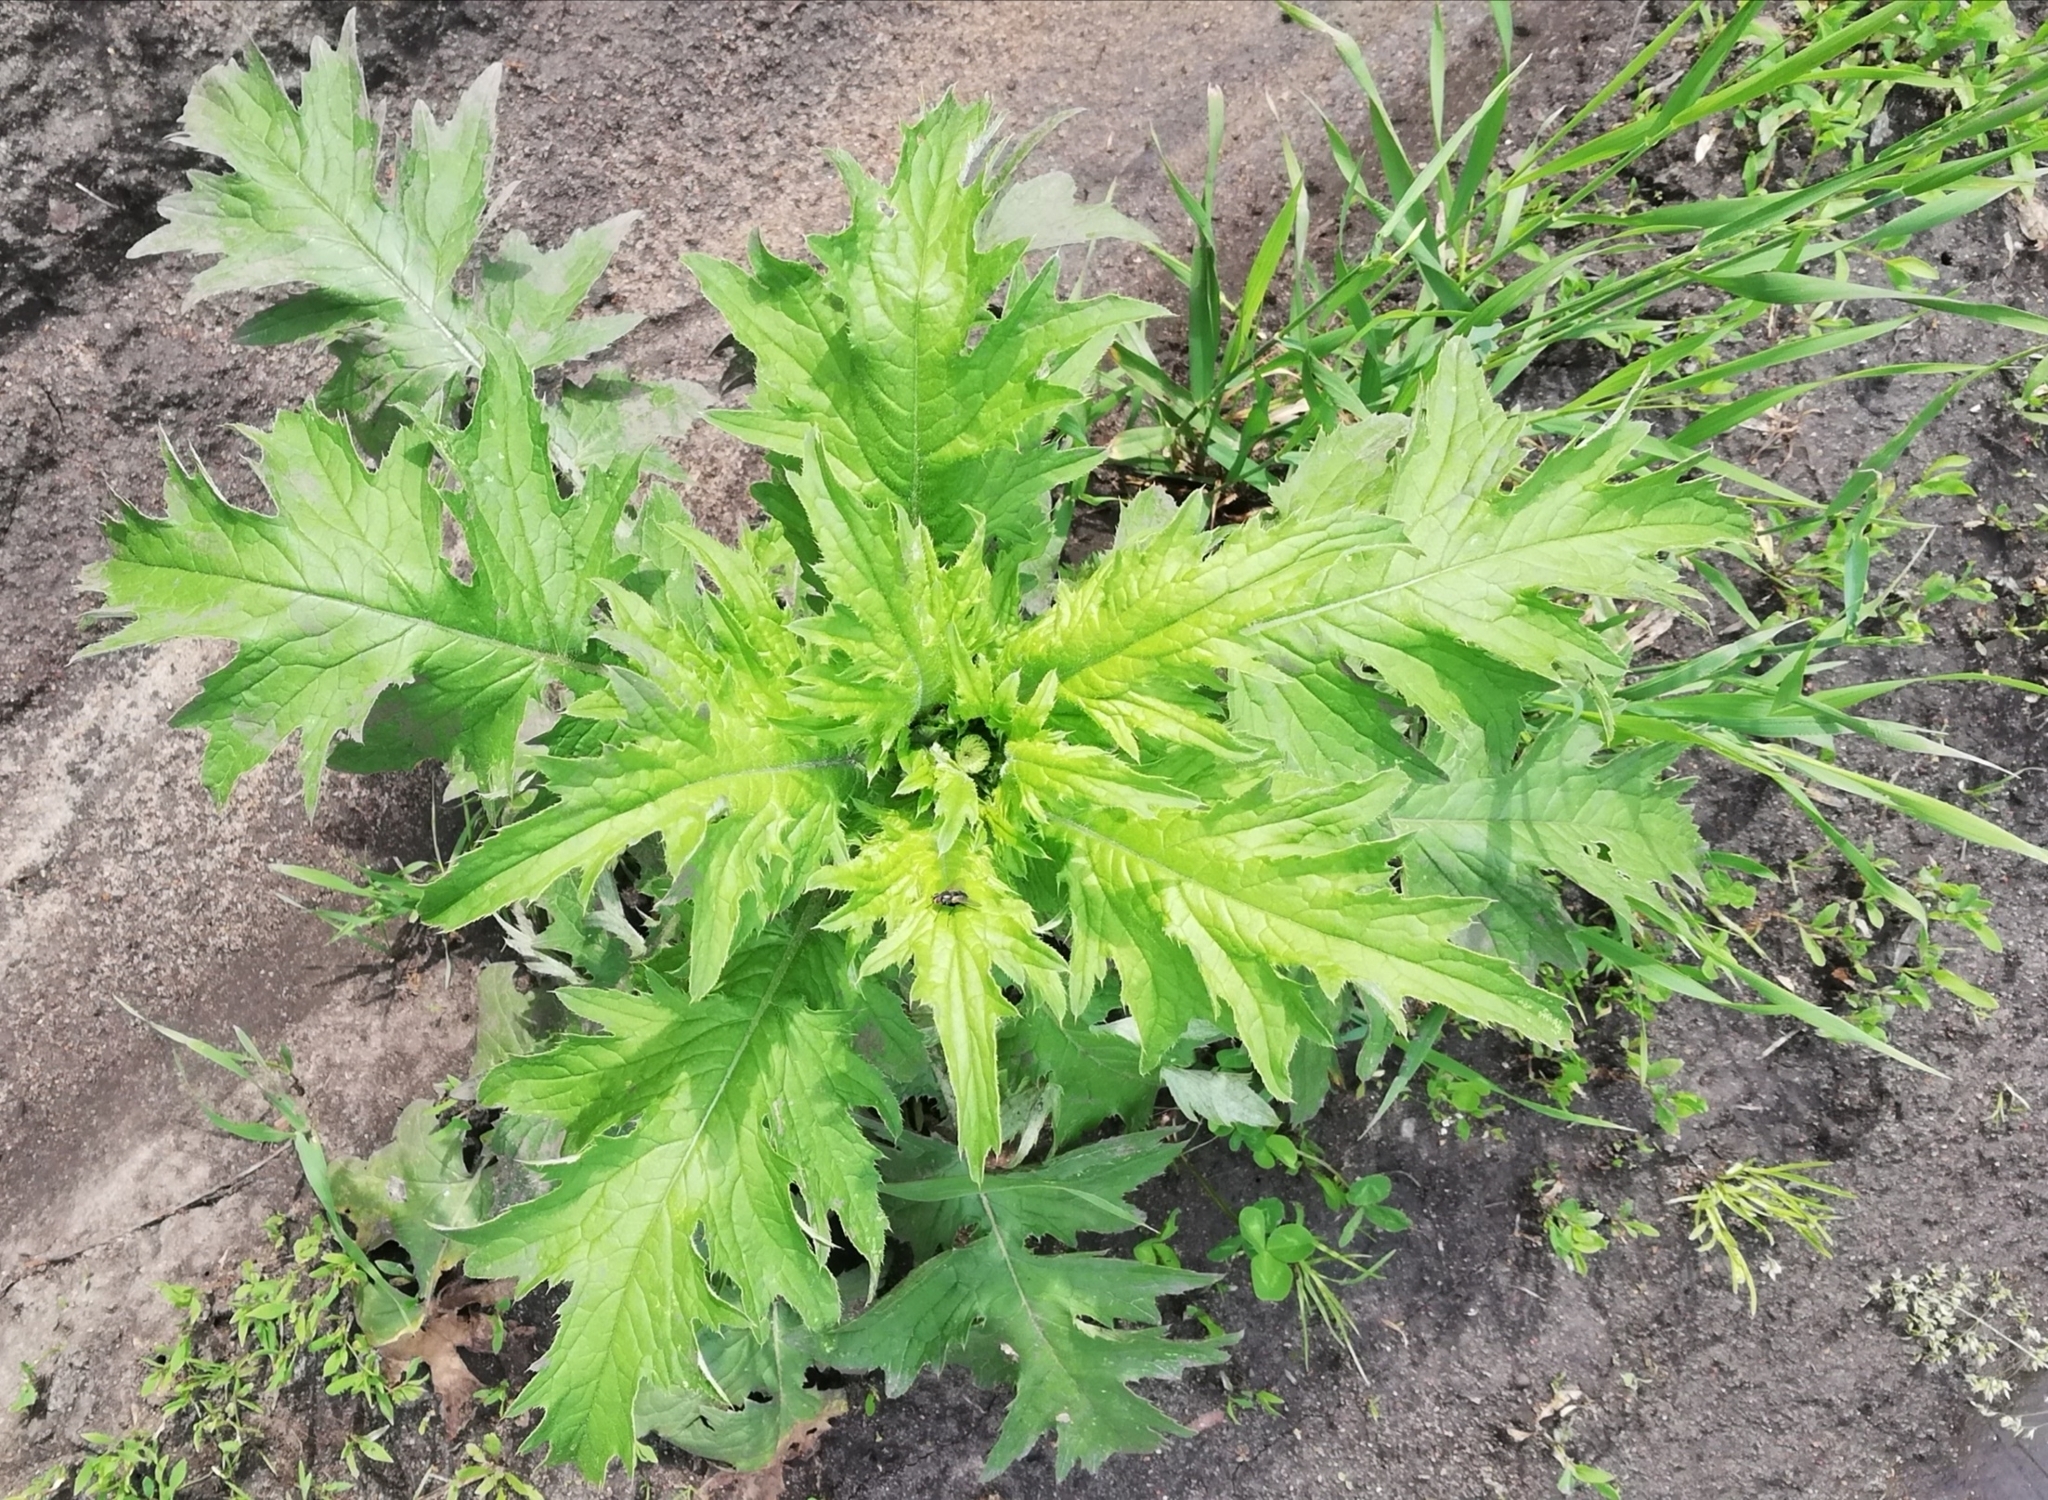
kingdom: Plantae
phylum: Tracheophyta
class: Magnoliopsida
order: Asterales
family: Asteraceae
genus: Carduus
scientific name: Carduus crispus
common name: Welted thistle
